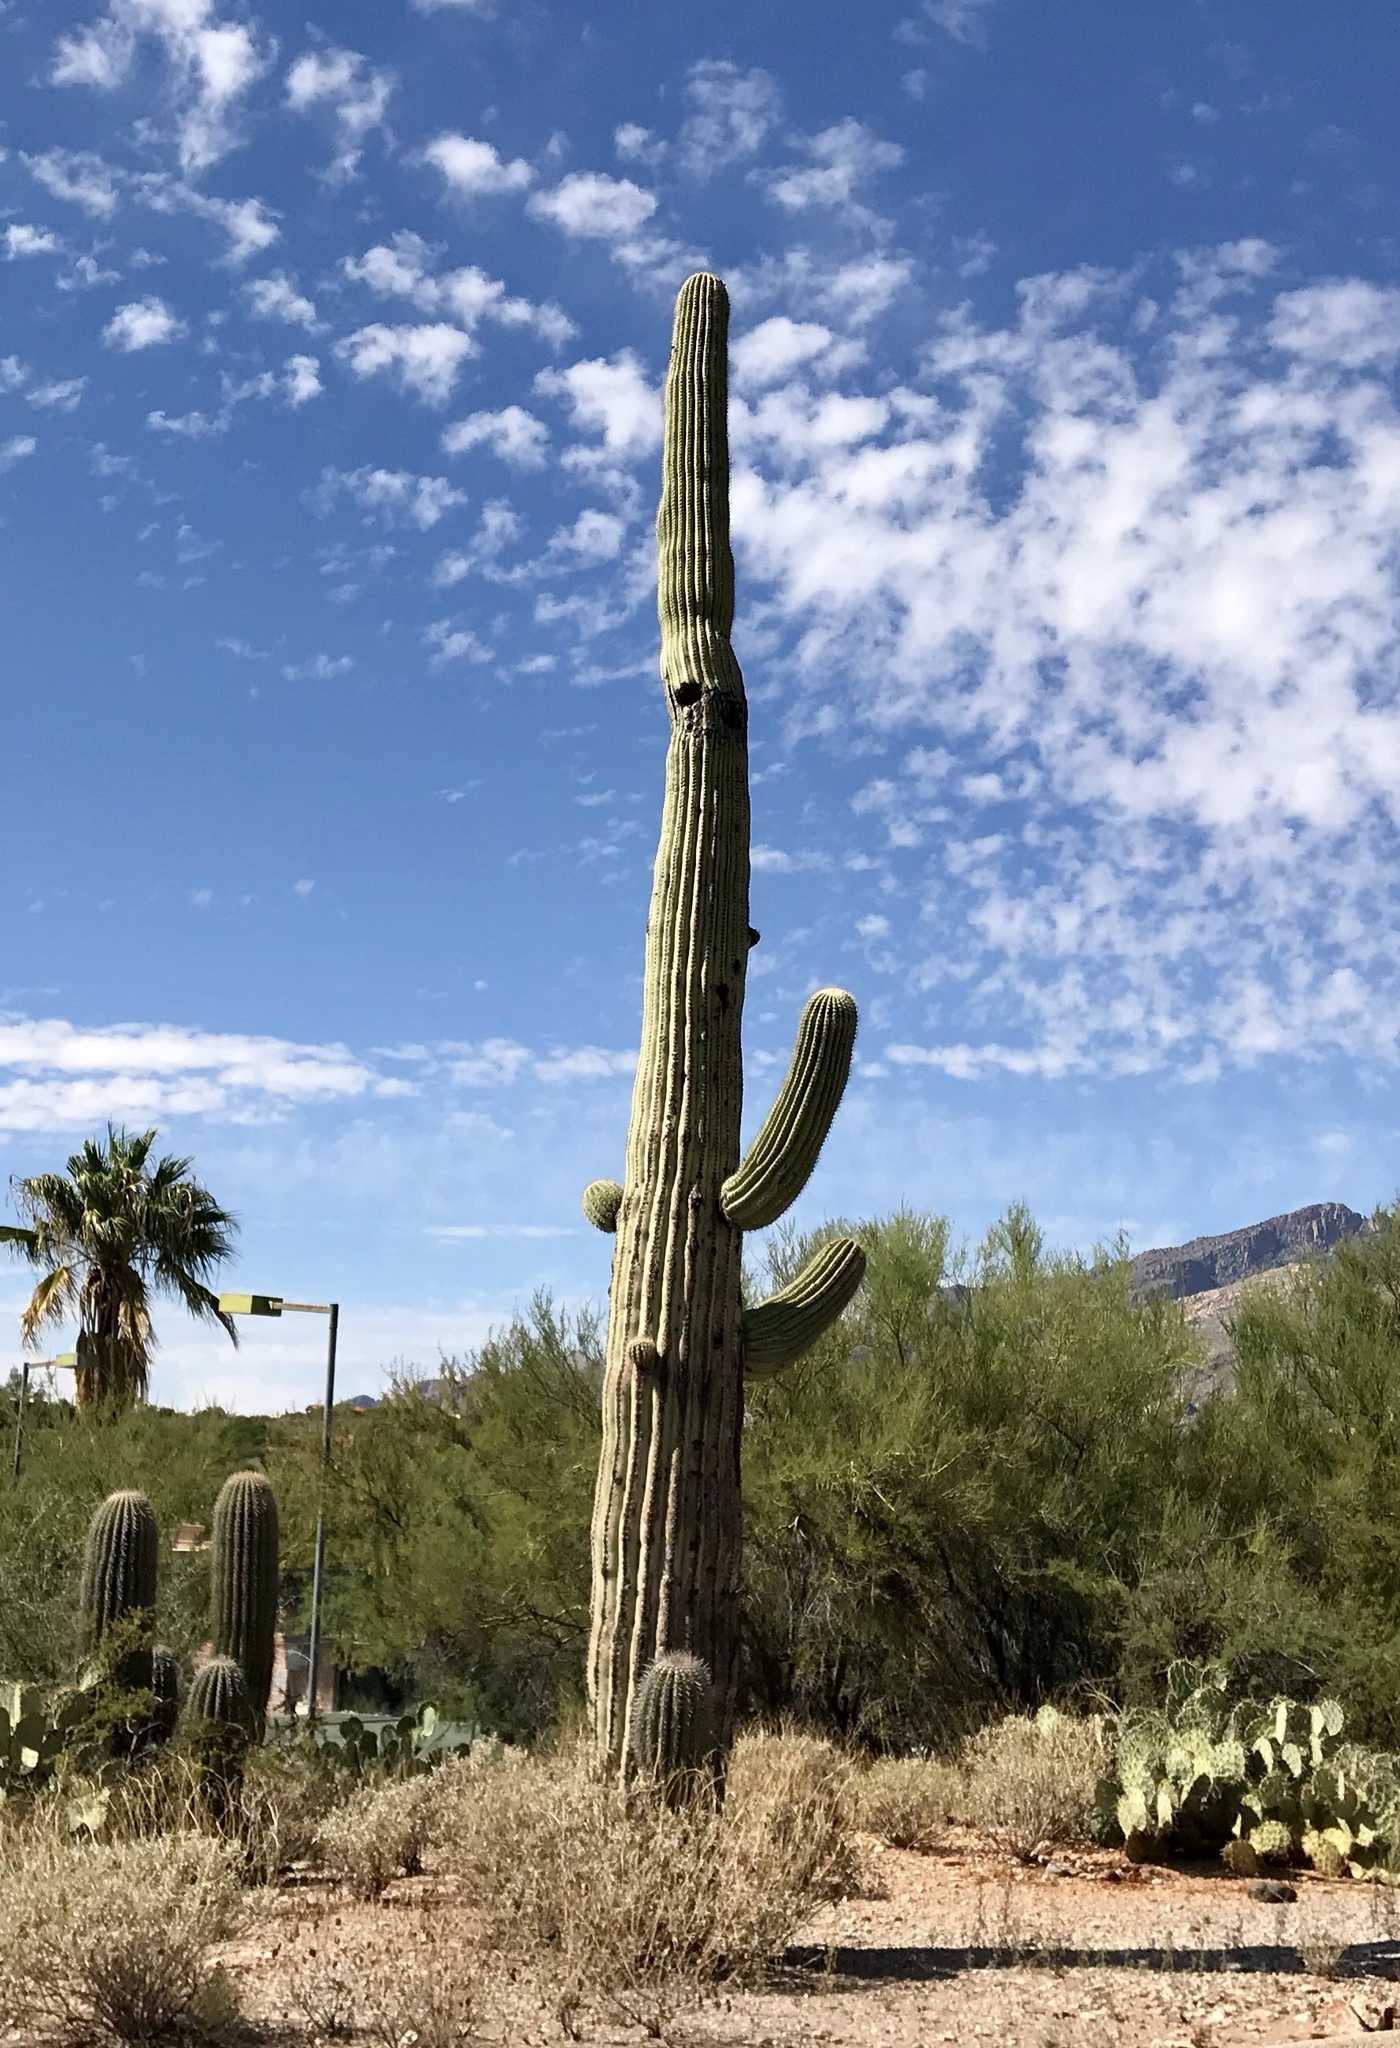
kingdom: Plantae
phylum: Tracheophyta
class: Magnoliopsida
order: Caryophyllales
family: Cactaceae
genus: Carnegiea
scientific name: Carnegiea gigantea
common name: Saguaro
